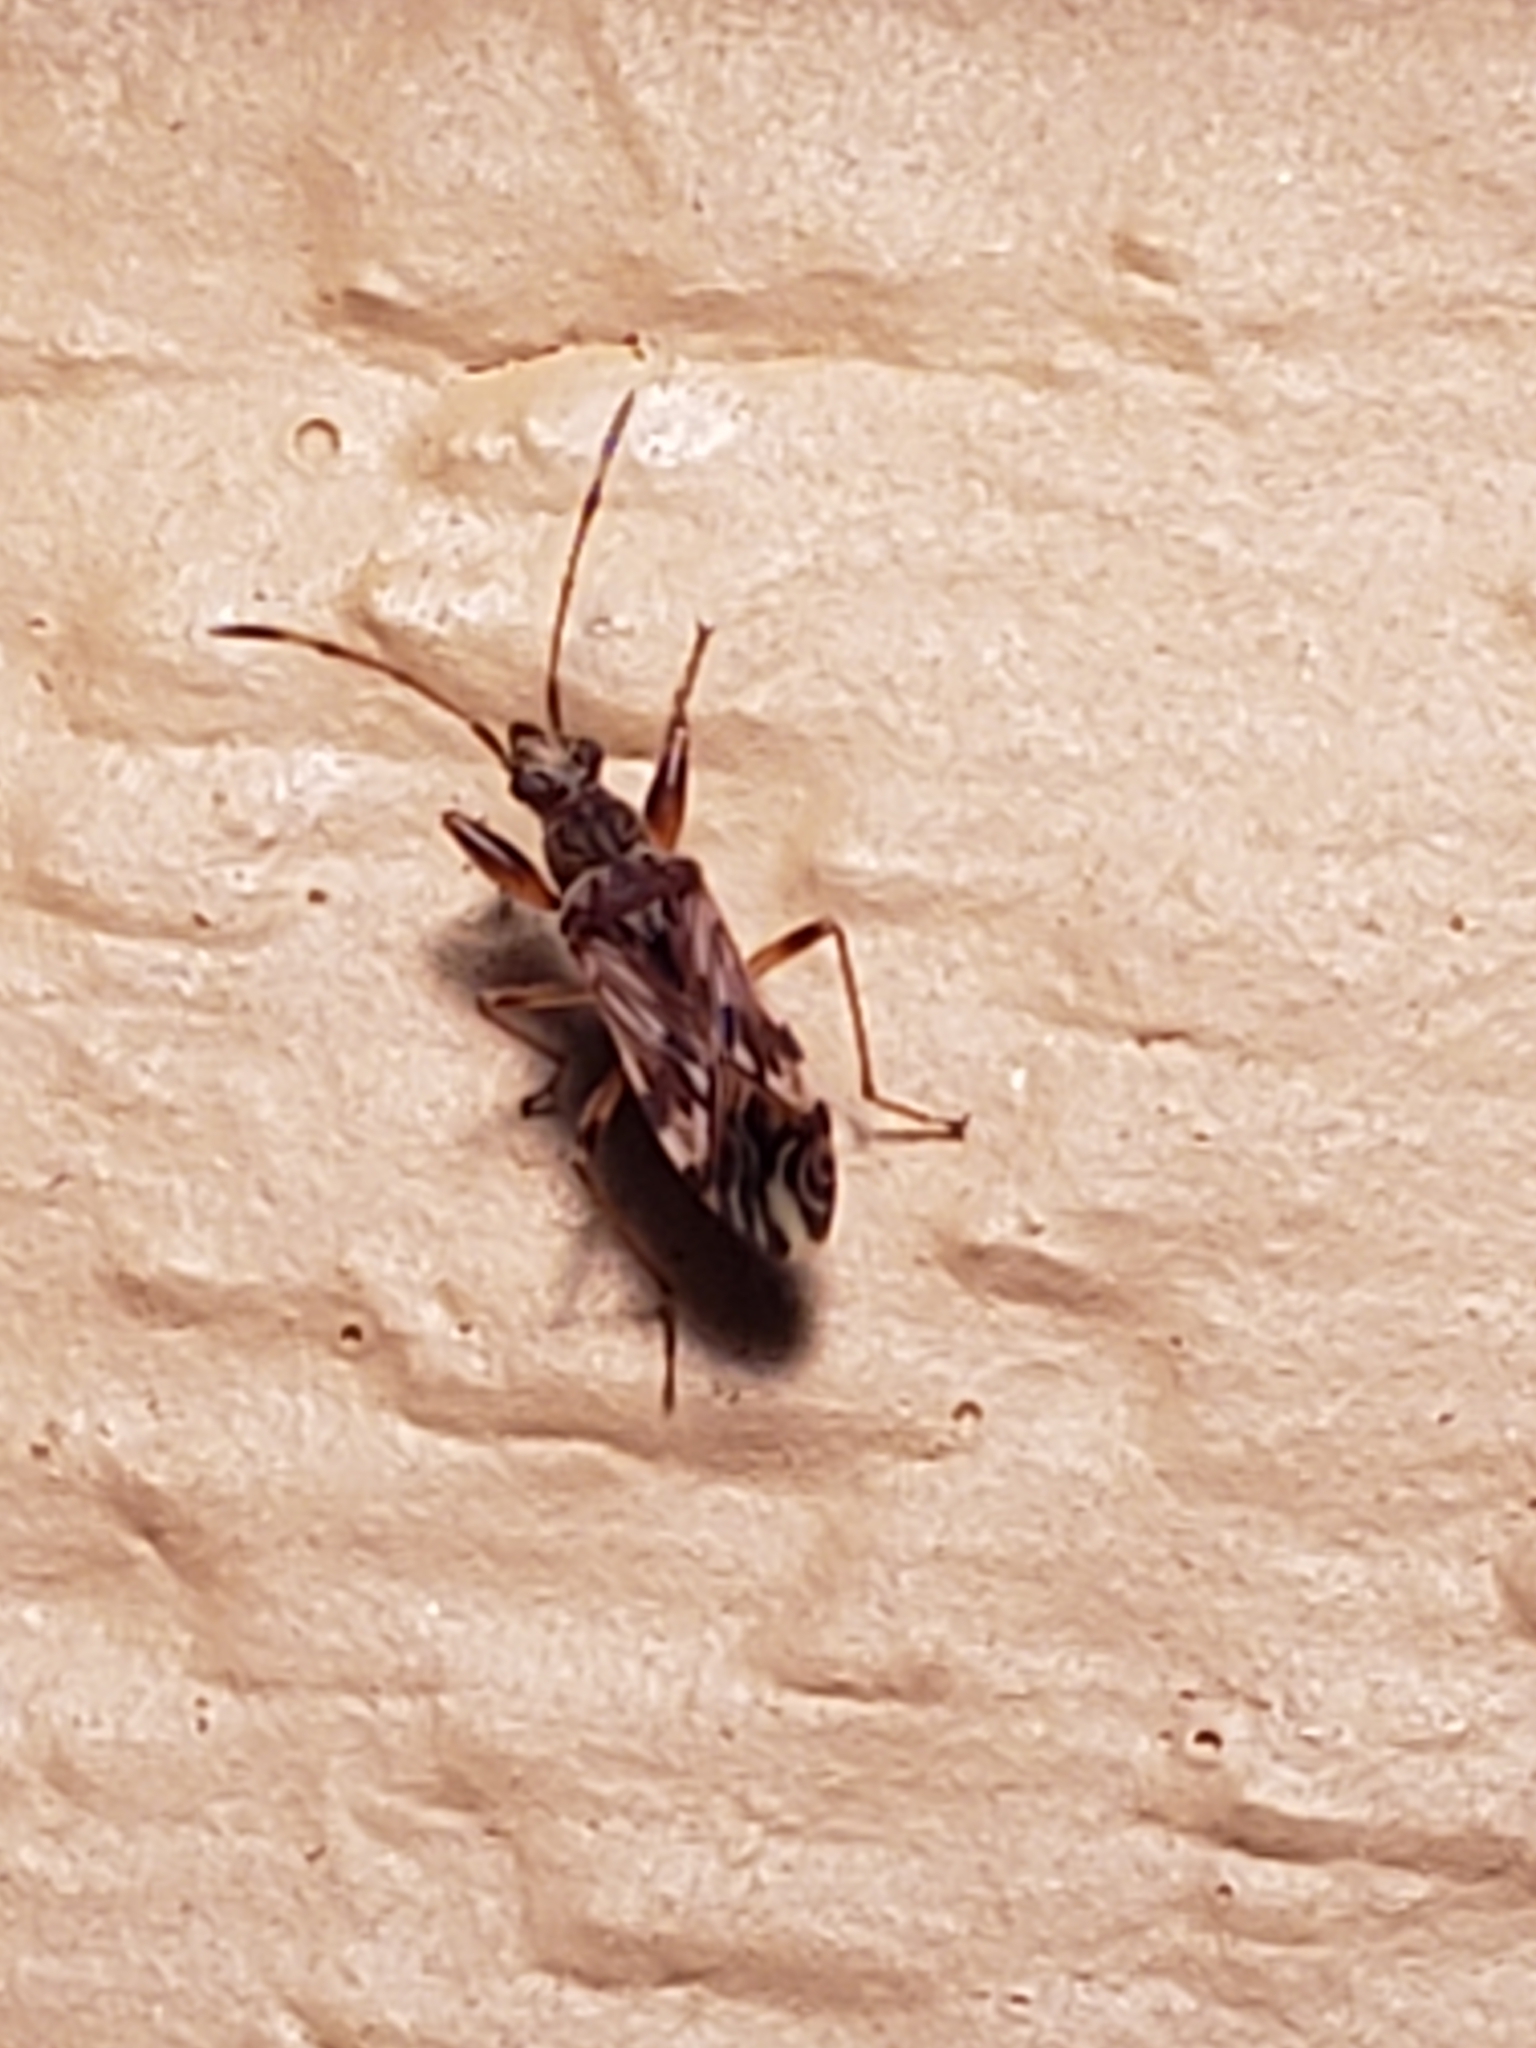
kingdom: Animalia
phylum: Arthropoda
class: Insecta
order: Hemiptera
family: Rhyparochromidae
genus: Neopamera
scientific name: Neopamera albocincta
